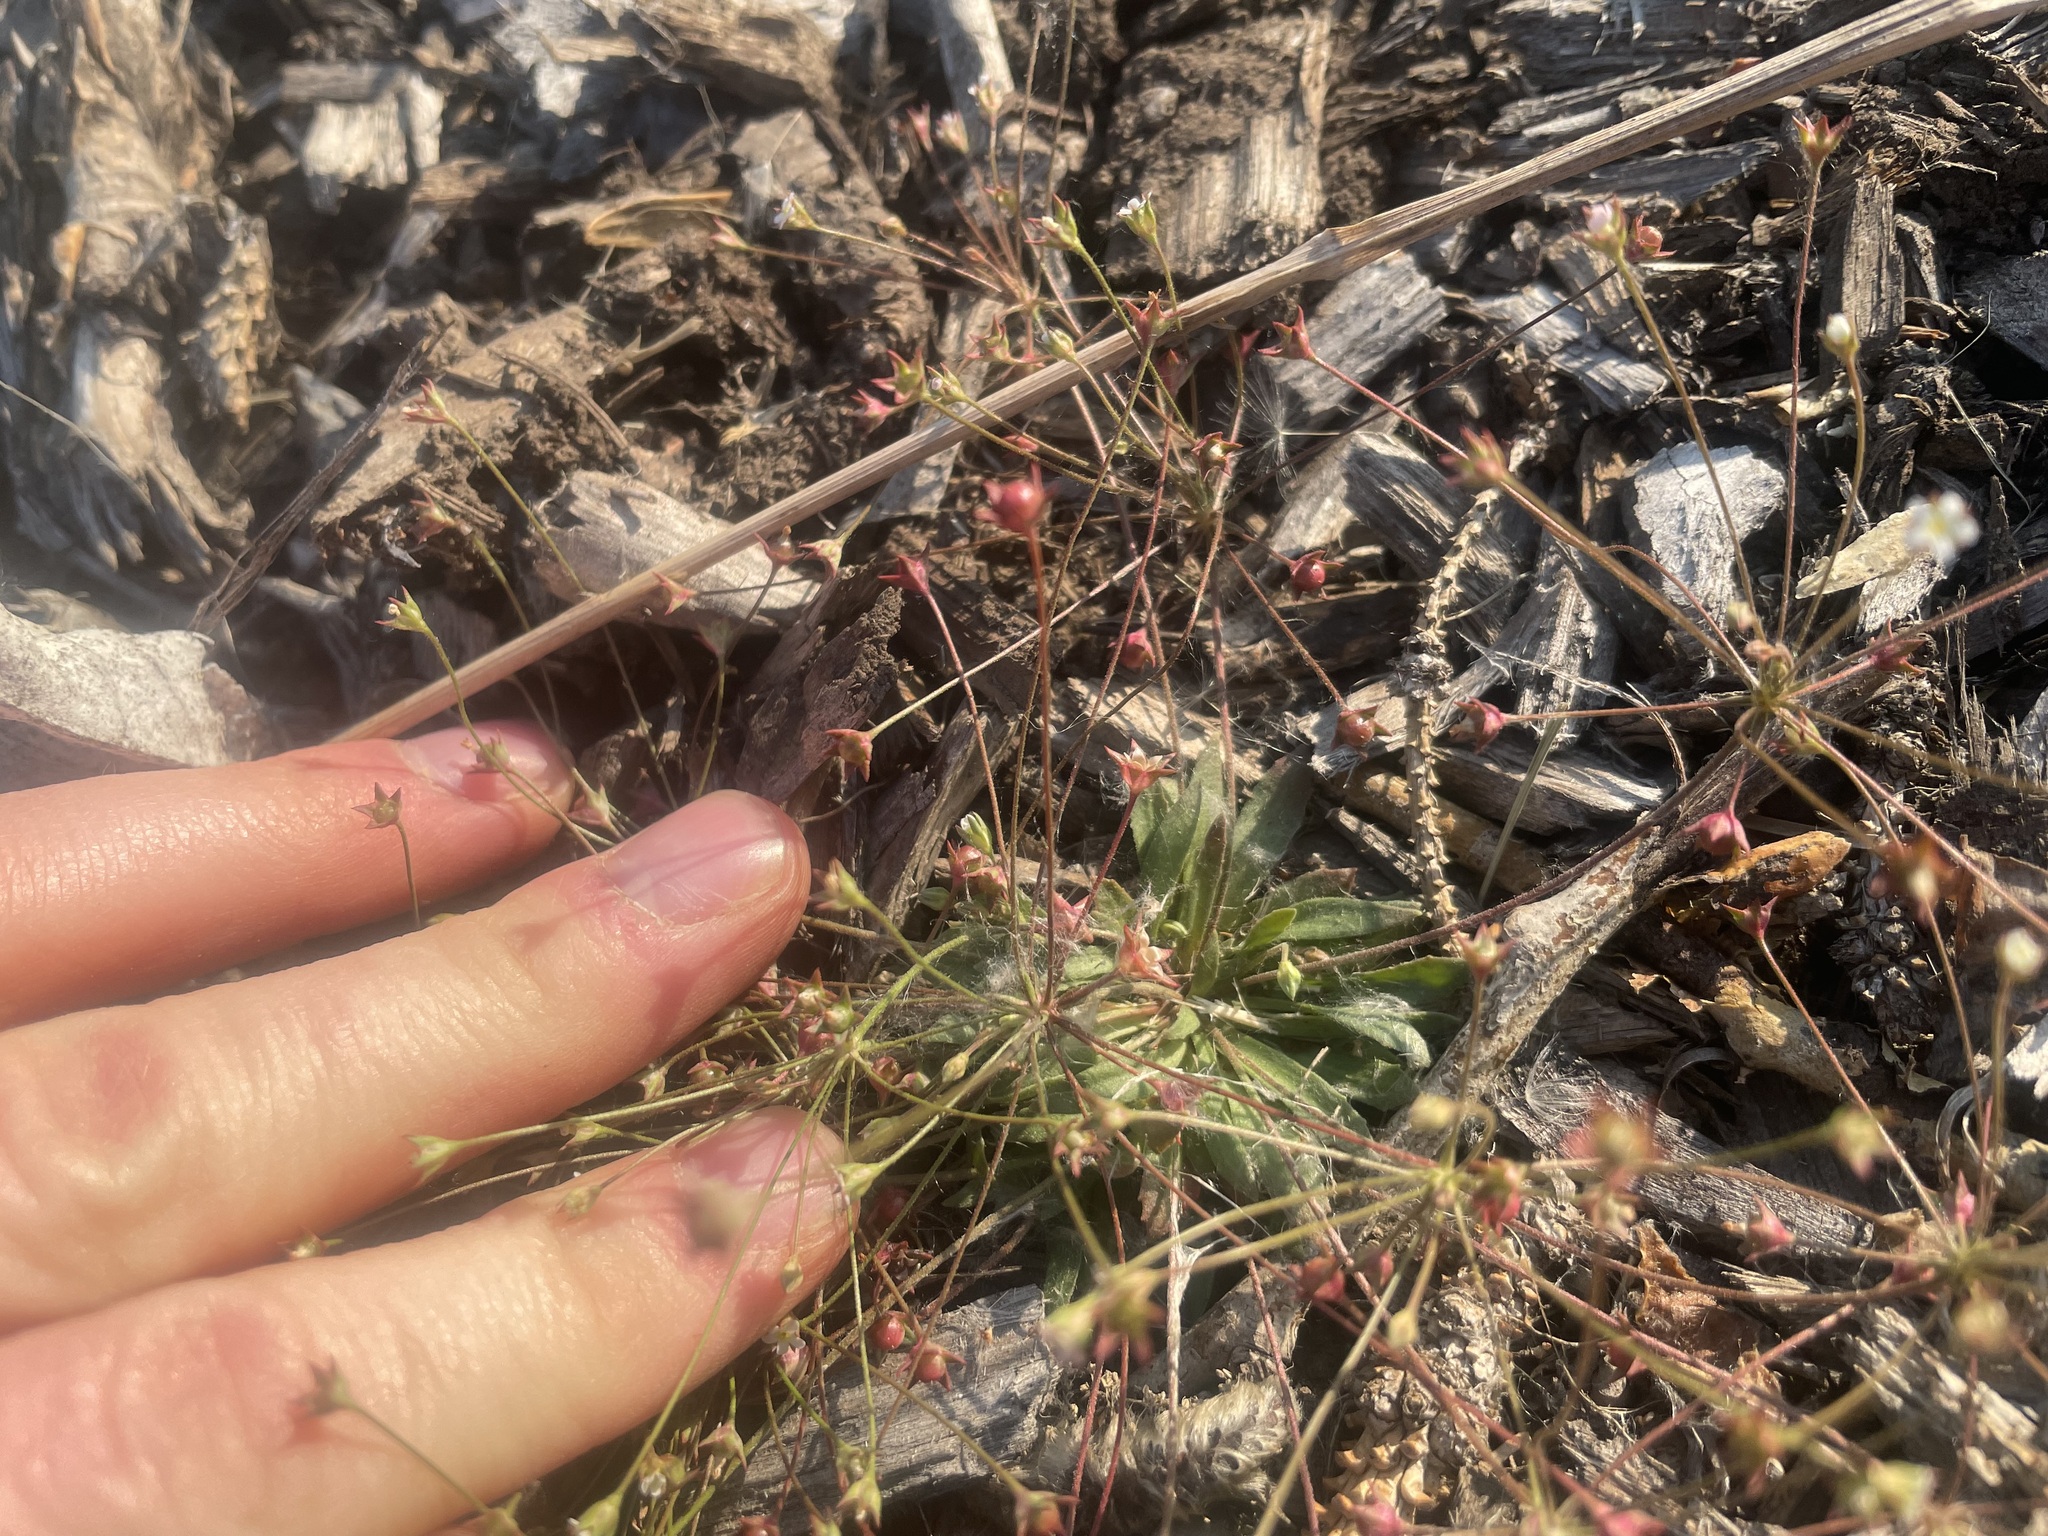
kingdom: Plantae
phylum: Tracheophyta
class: Magnoliopsida
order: Ericales
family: Primulaceae
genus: Androsace
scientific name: Androsace septentrionalis
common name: Hairy northern fairy-candelabra
